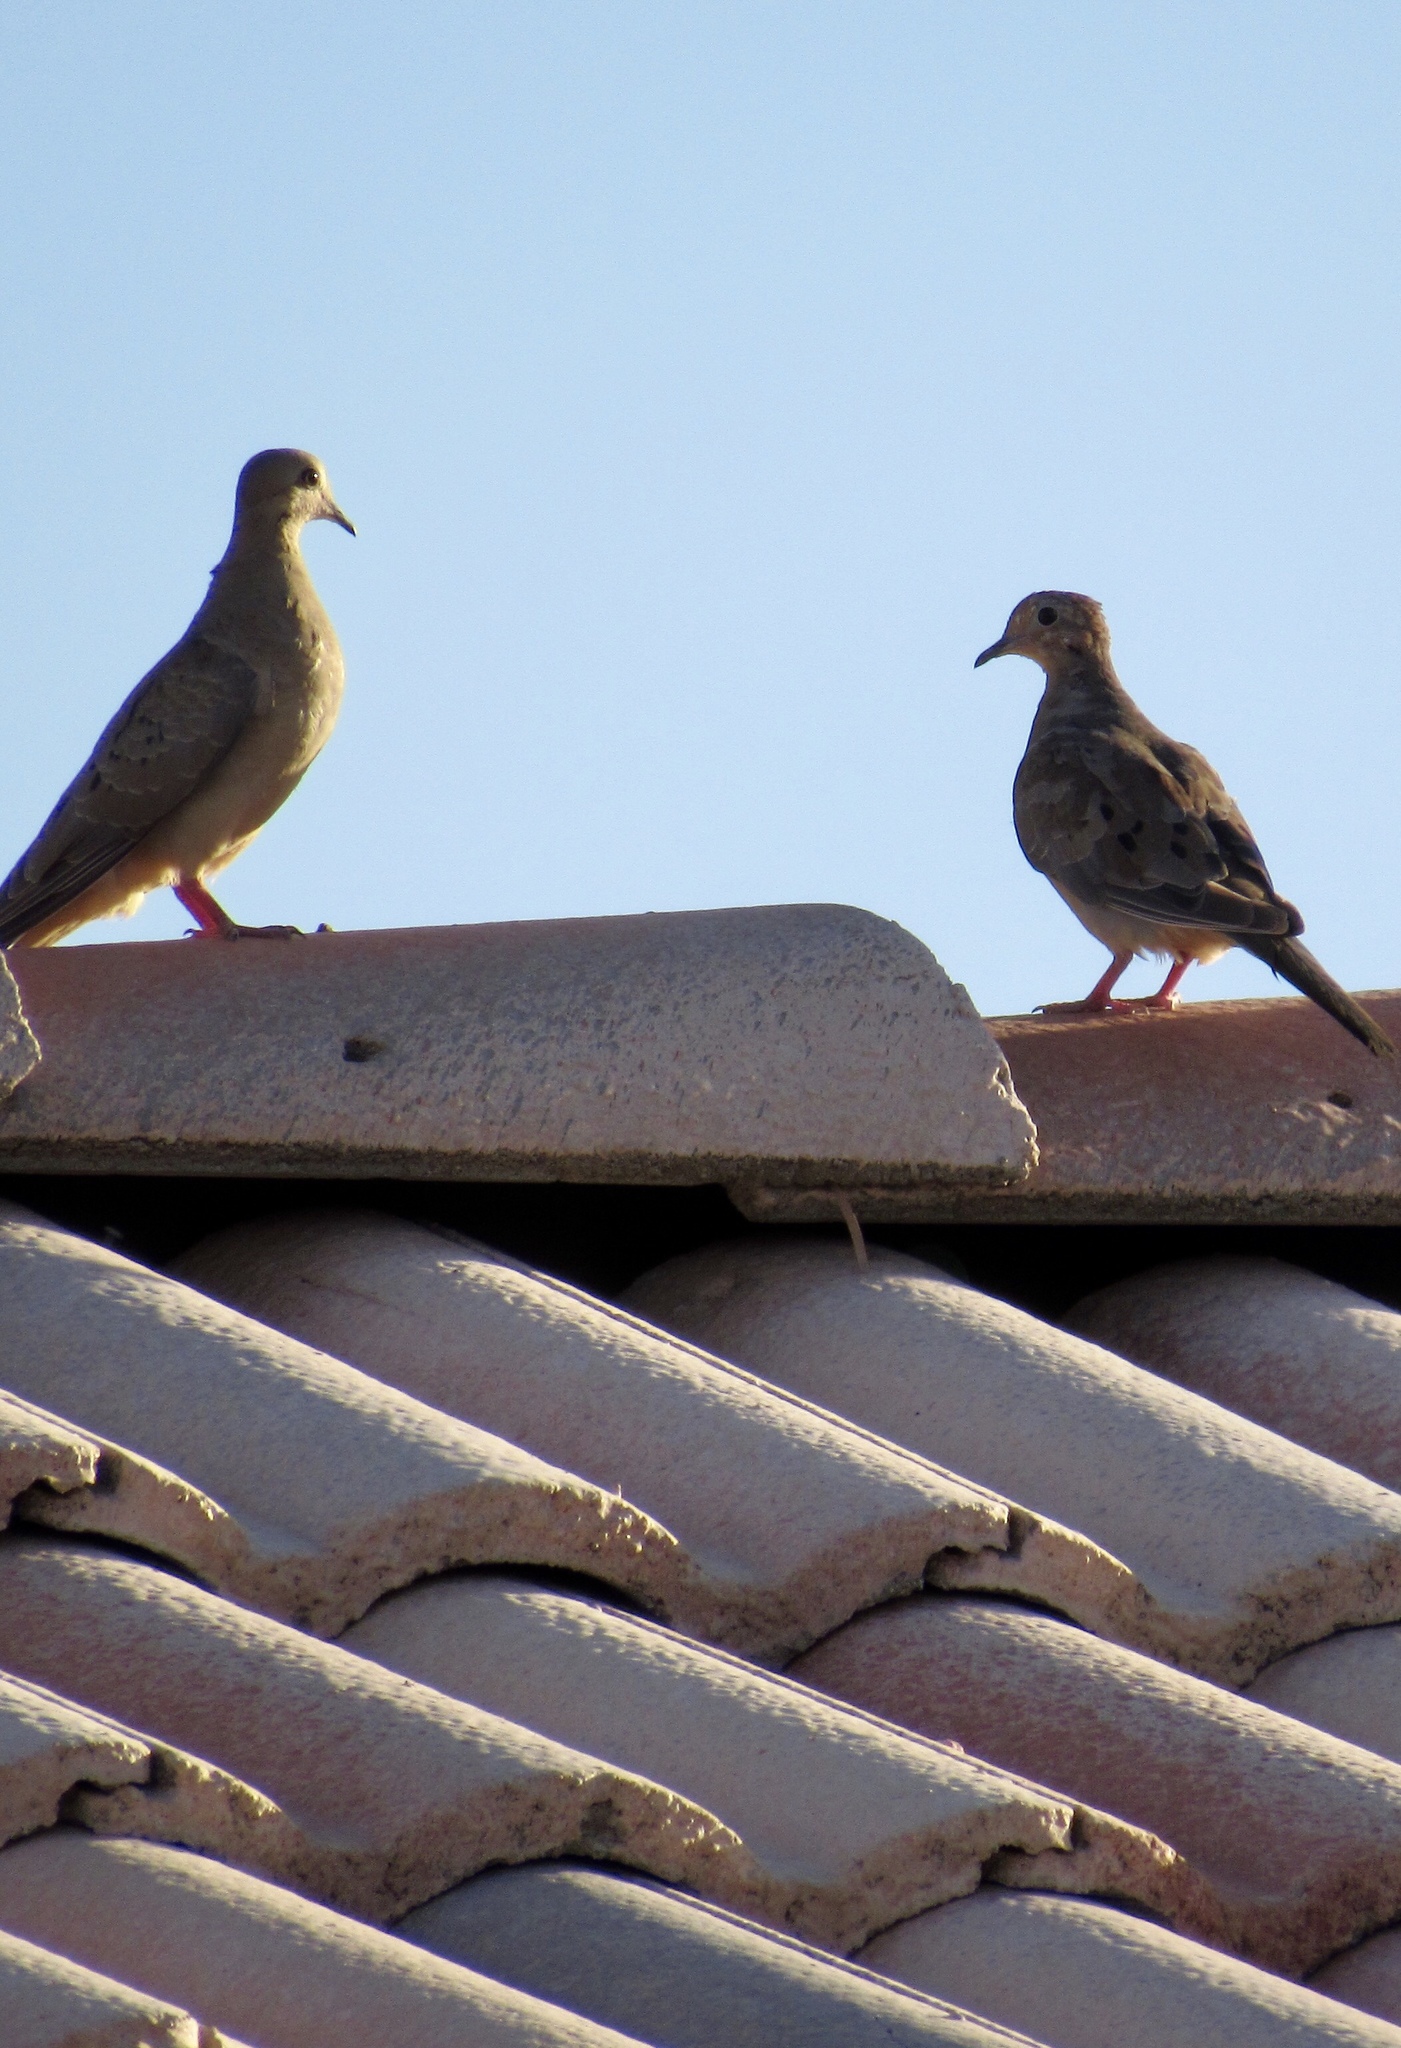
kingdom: Animalia
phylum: Chordata
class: Aves
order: Columbiformes
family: Columbidae
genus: Zenaida
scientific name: Zenaida macroura
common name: Mourning dove
